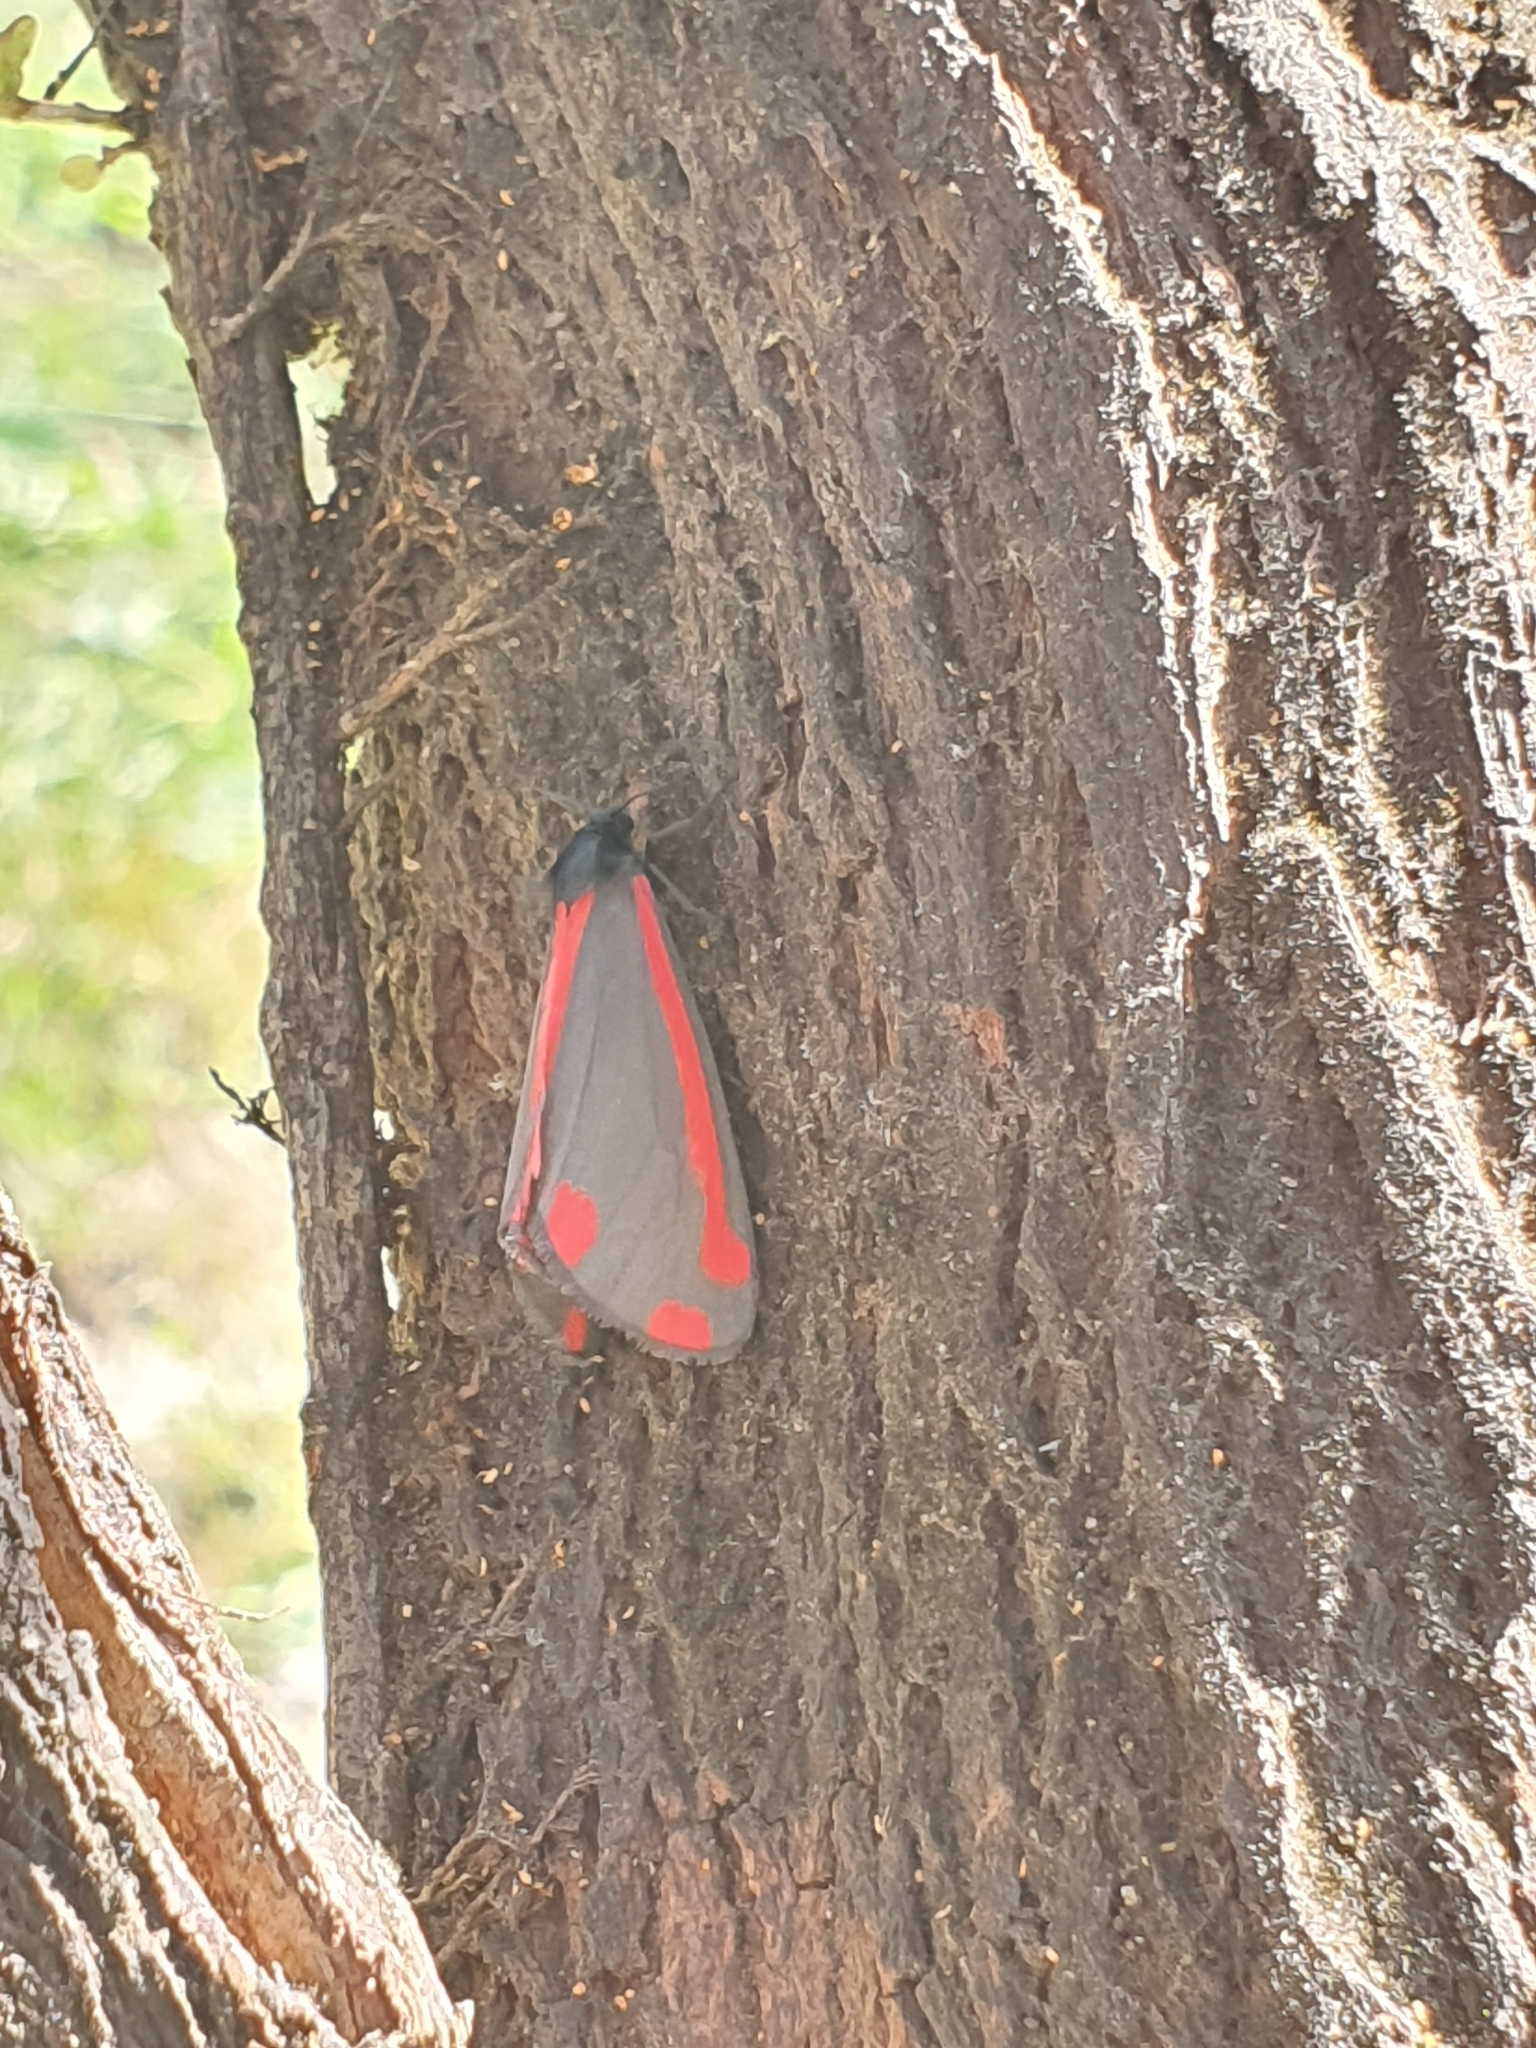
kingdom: Animalia
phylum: Arthropoda
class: Insecta
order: Lepidoptera
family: Erebidae
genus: Tyria
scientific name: Tyria jacobaeae
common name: Cinnabar
